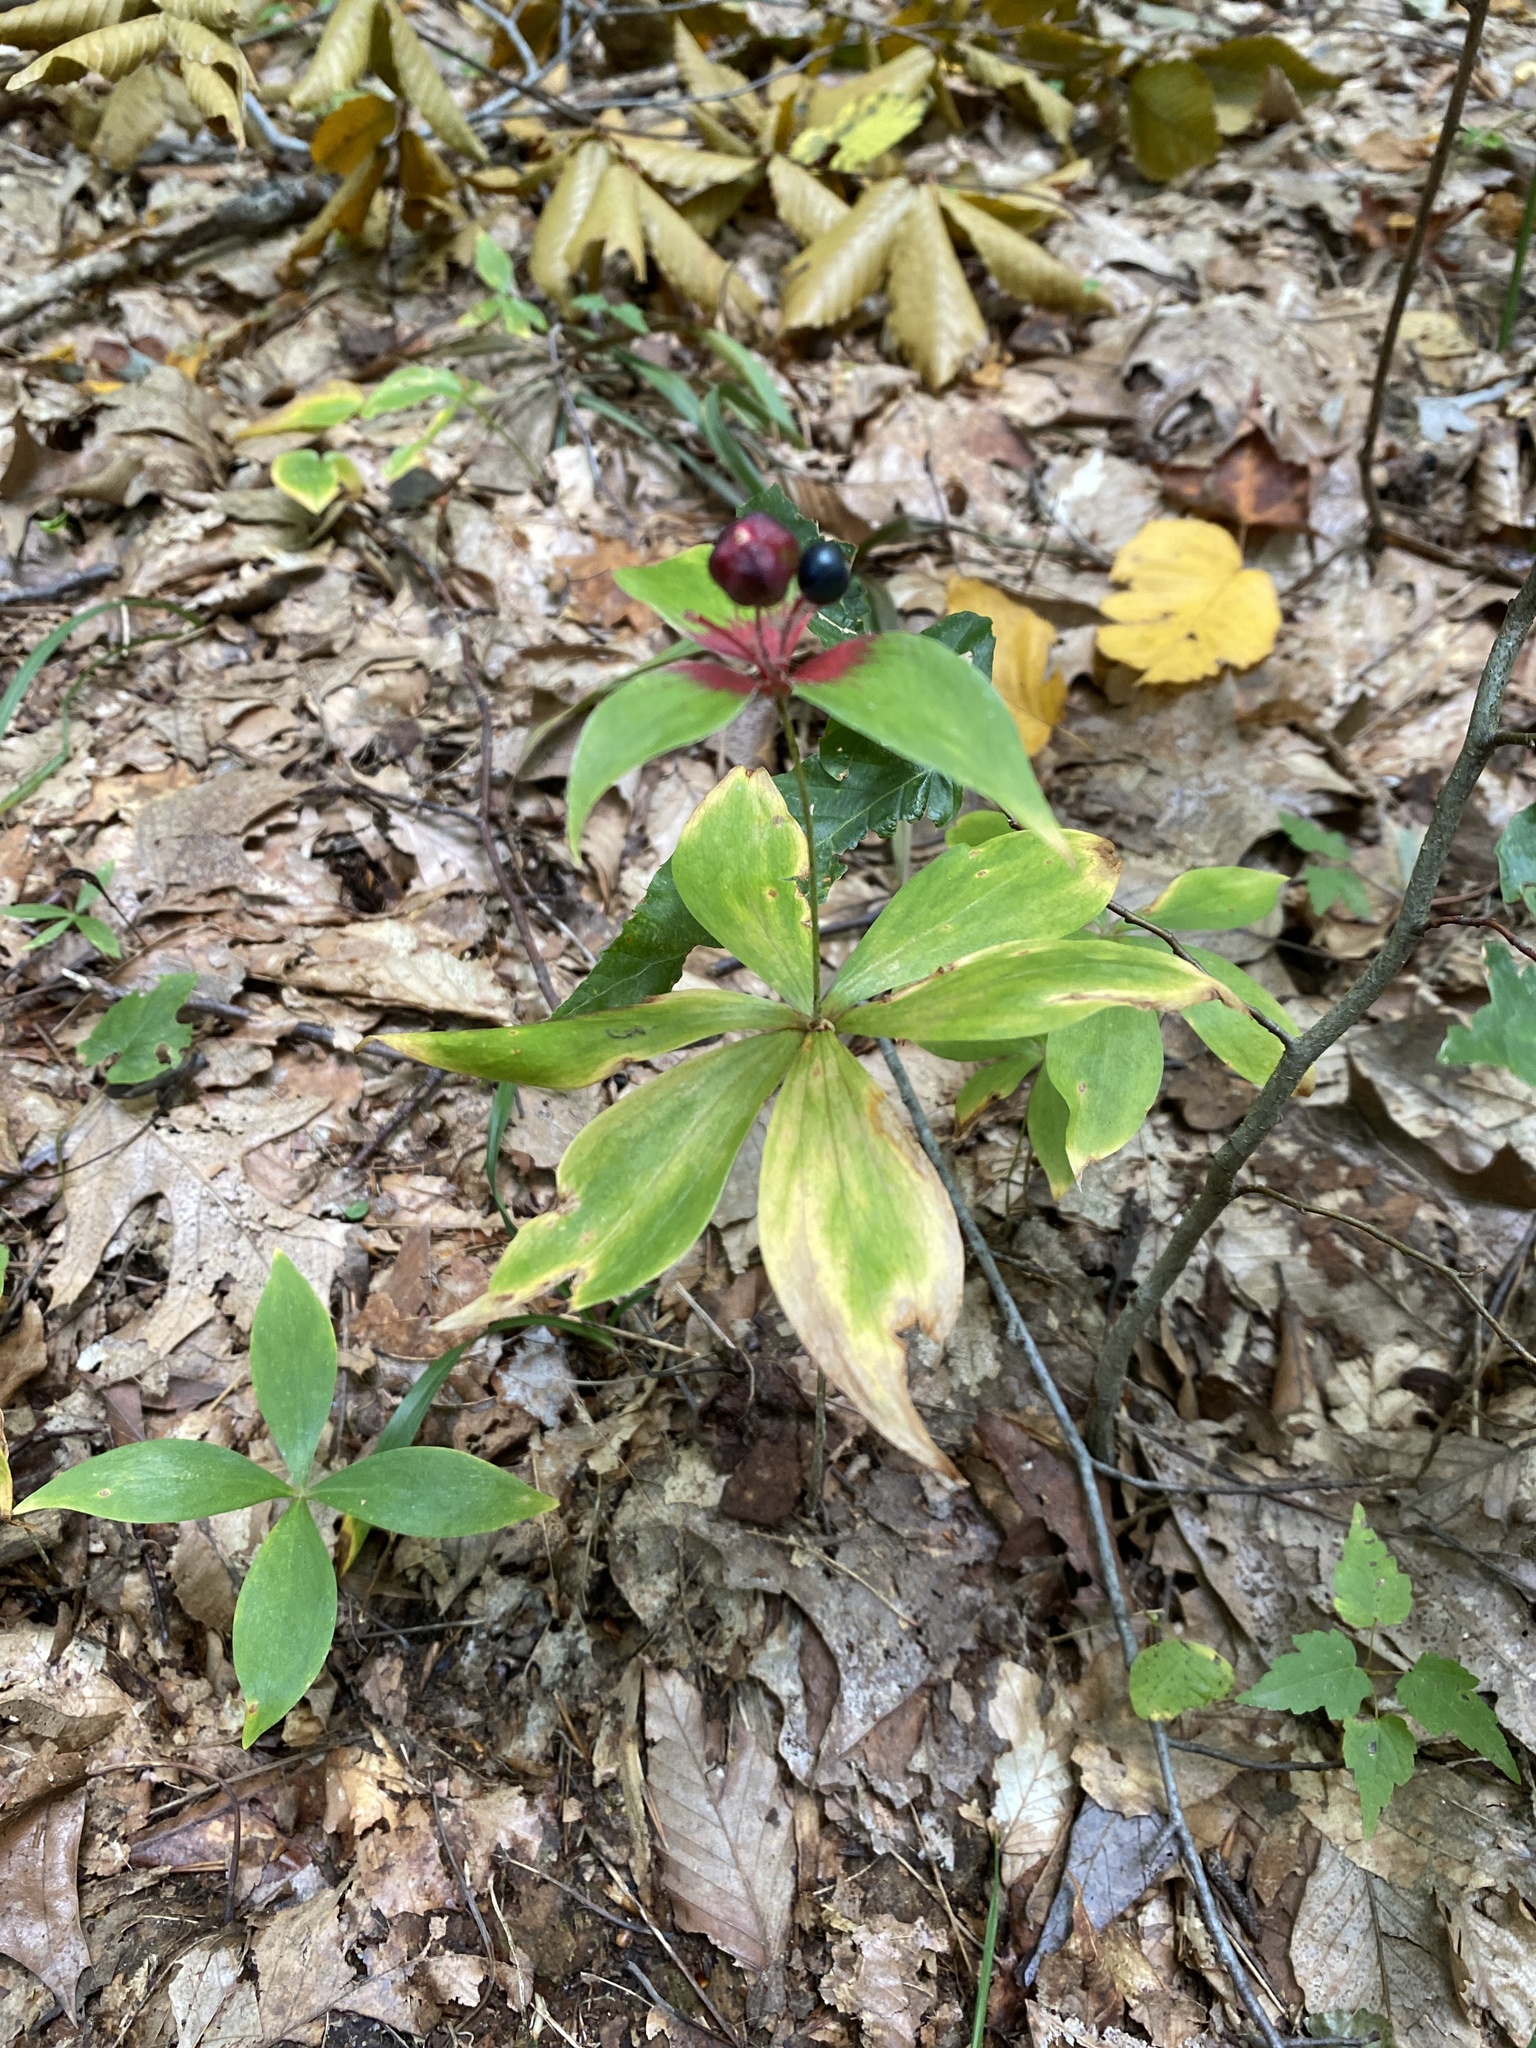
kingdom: Plantae
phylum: Tracheophyta
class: Liliopsida
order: Liliales
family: Liliaceae
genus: Medeola
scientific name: Medeola virginiana
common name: Indian cucumber-root
